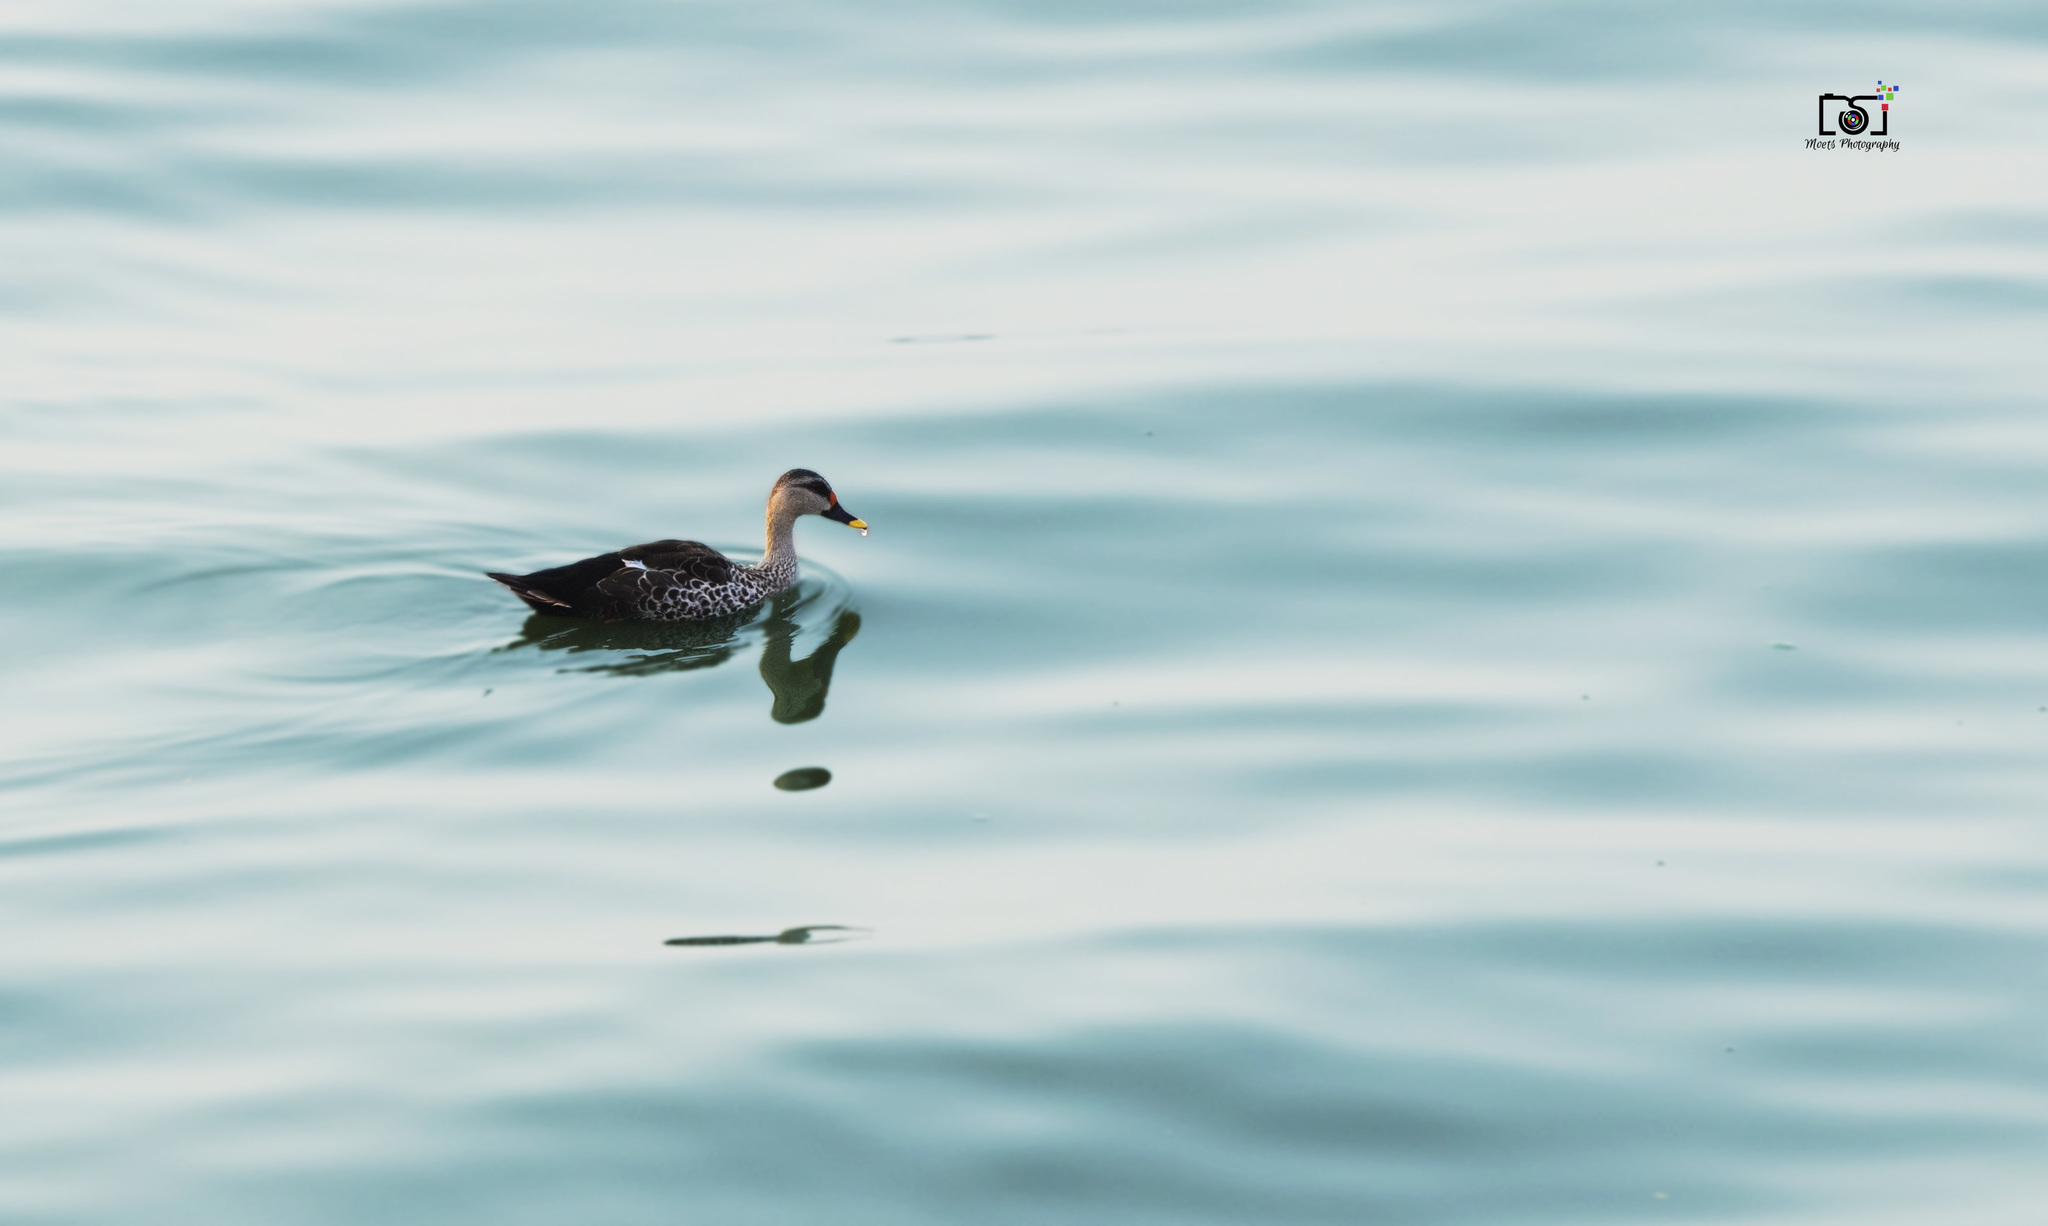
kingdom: Animalia
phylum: Chordata
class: Aves
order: Anseriformes
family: Anatidae
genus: Anas
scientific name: Anas poecilorhyncha
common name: Indian spot-billed duck
